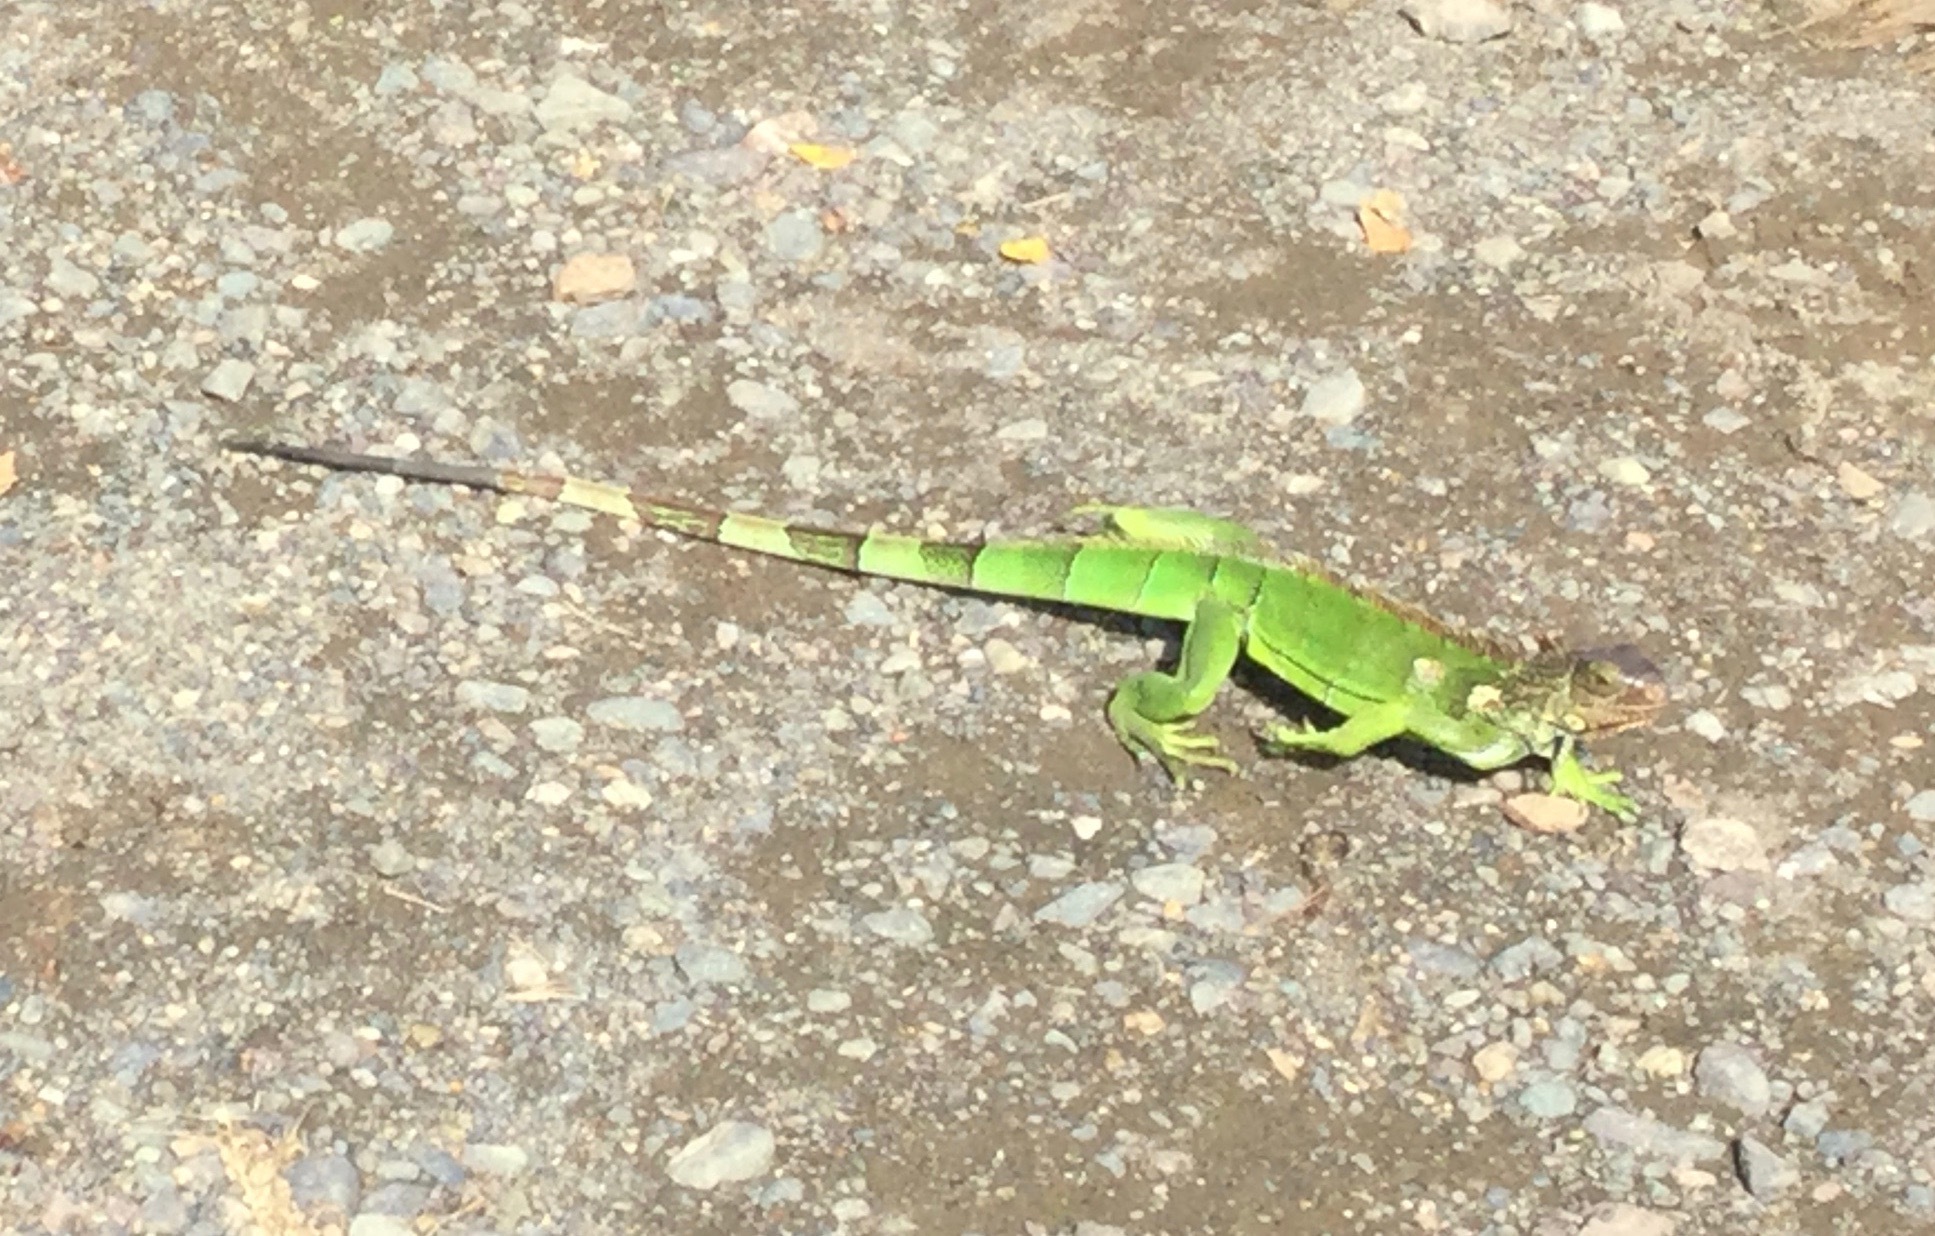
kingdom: Animalia
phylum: Chordata
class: Squamata
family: Iguanidae
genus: Iguana
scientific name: Iguana iguana
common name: Green iguana
